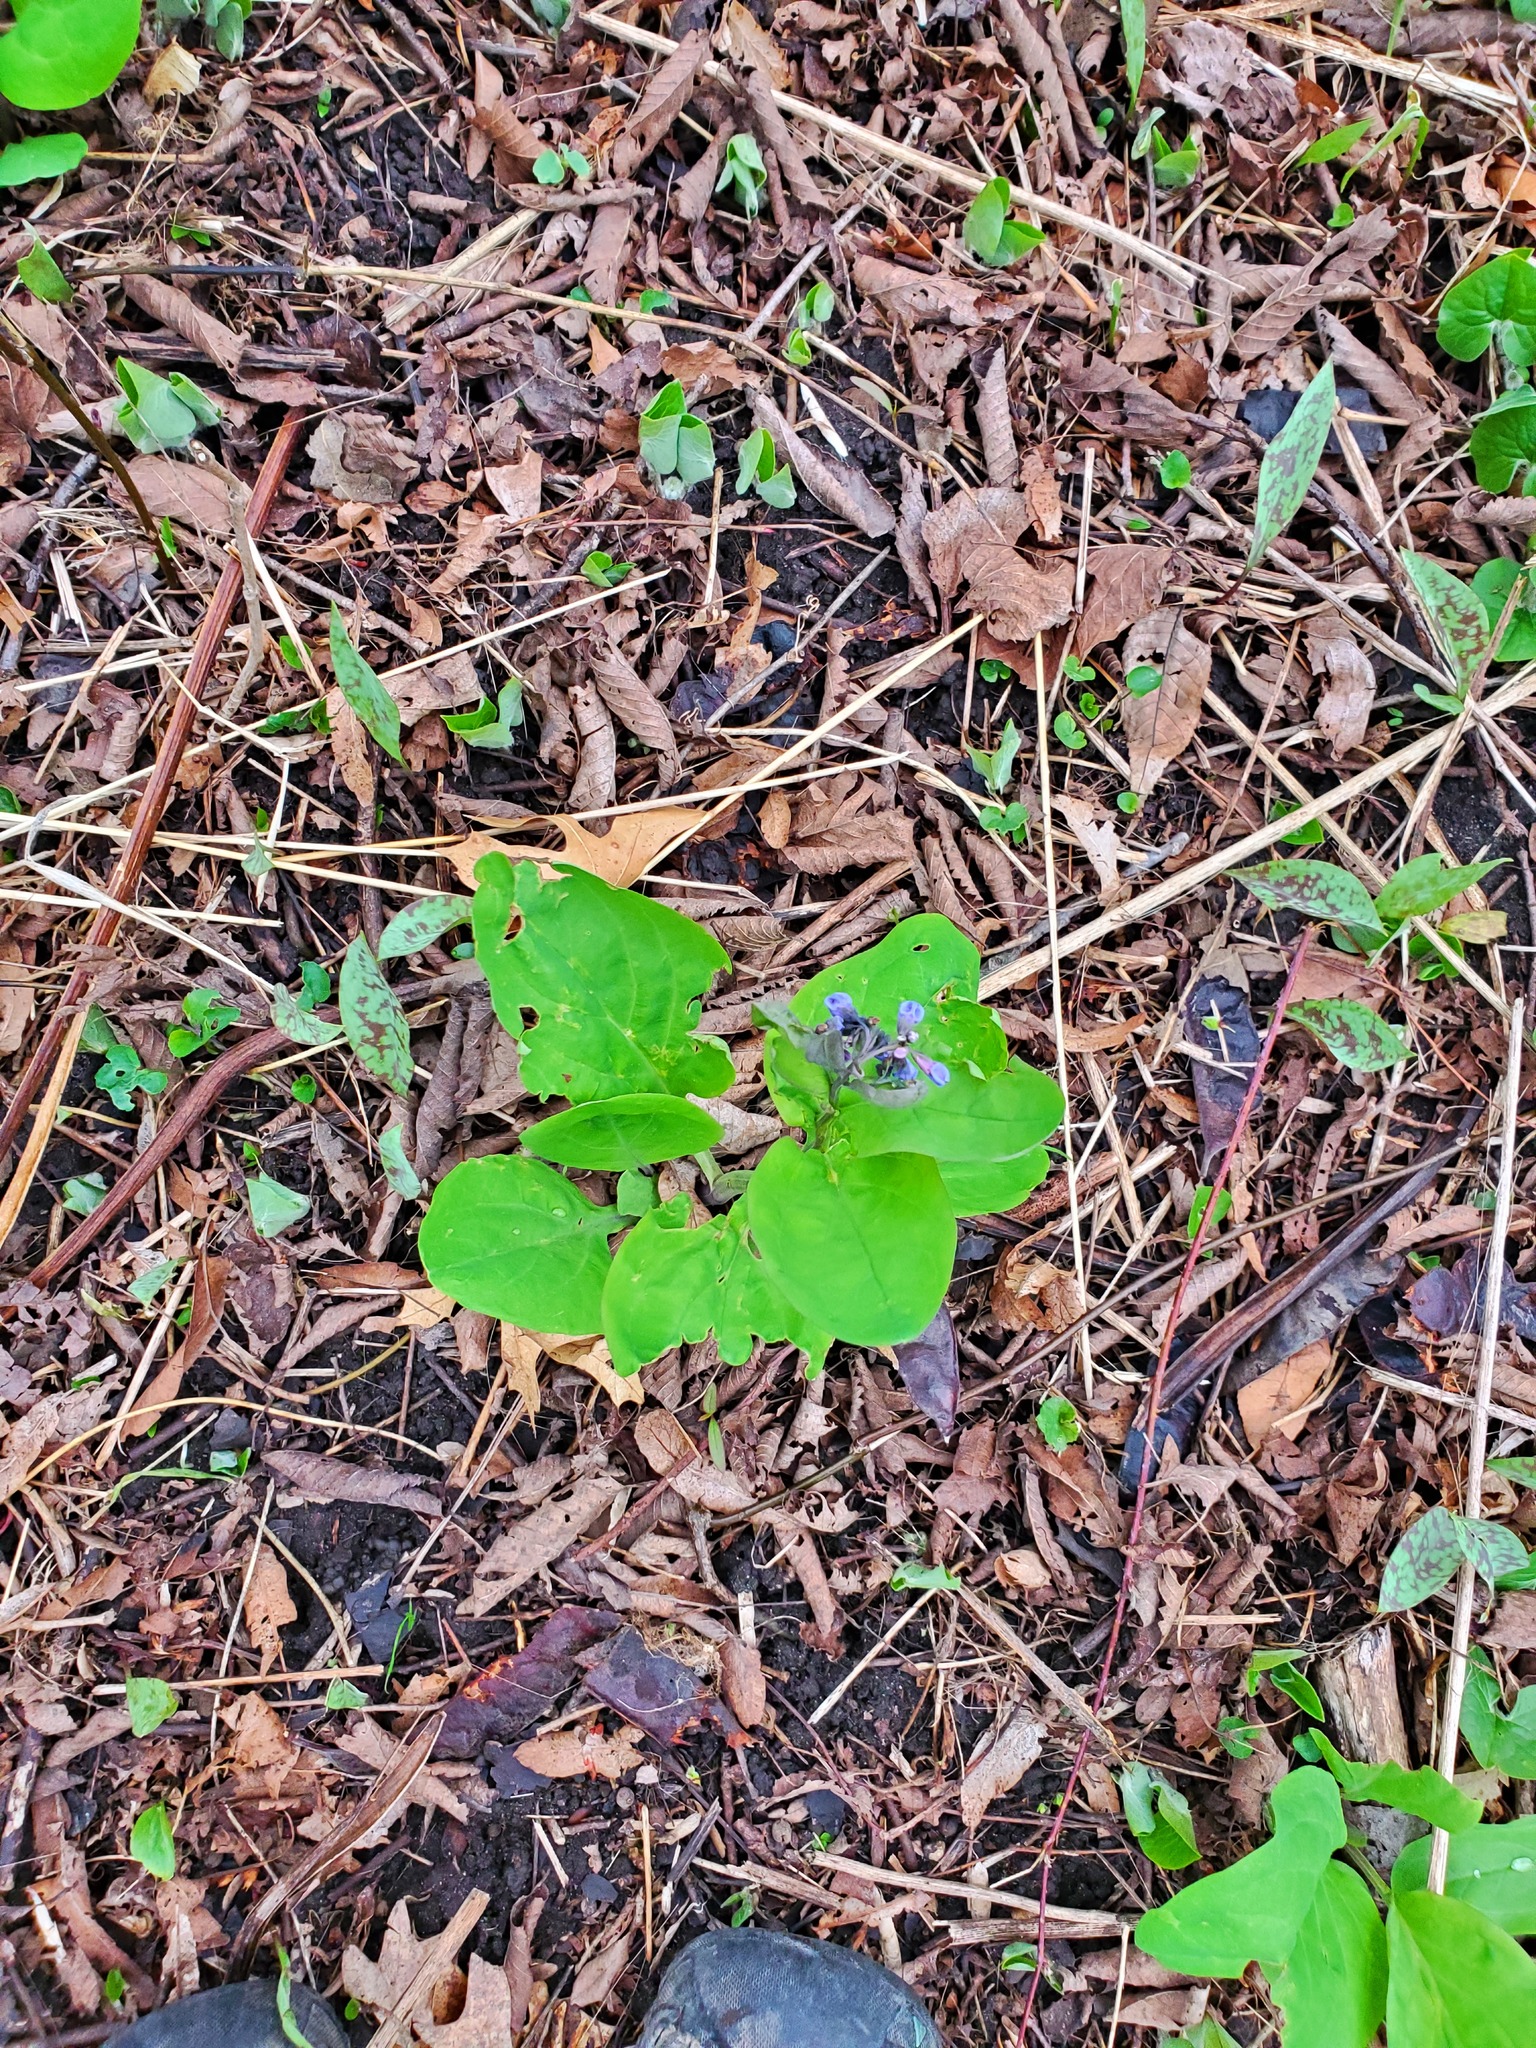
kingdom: Plantae
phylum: Tracheophyta
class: Magnoliopsida
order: Boraginales
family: Boraginaceae
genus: Mertensia
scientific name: Mertensia virginica
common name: Virginia bluebells
